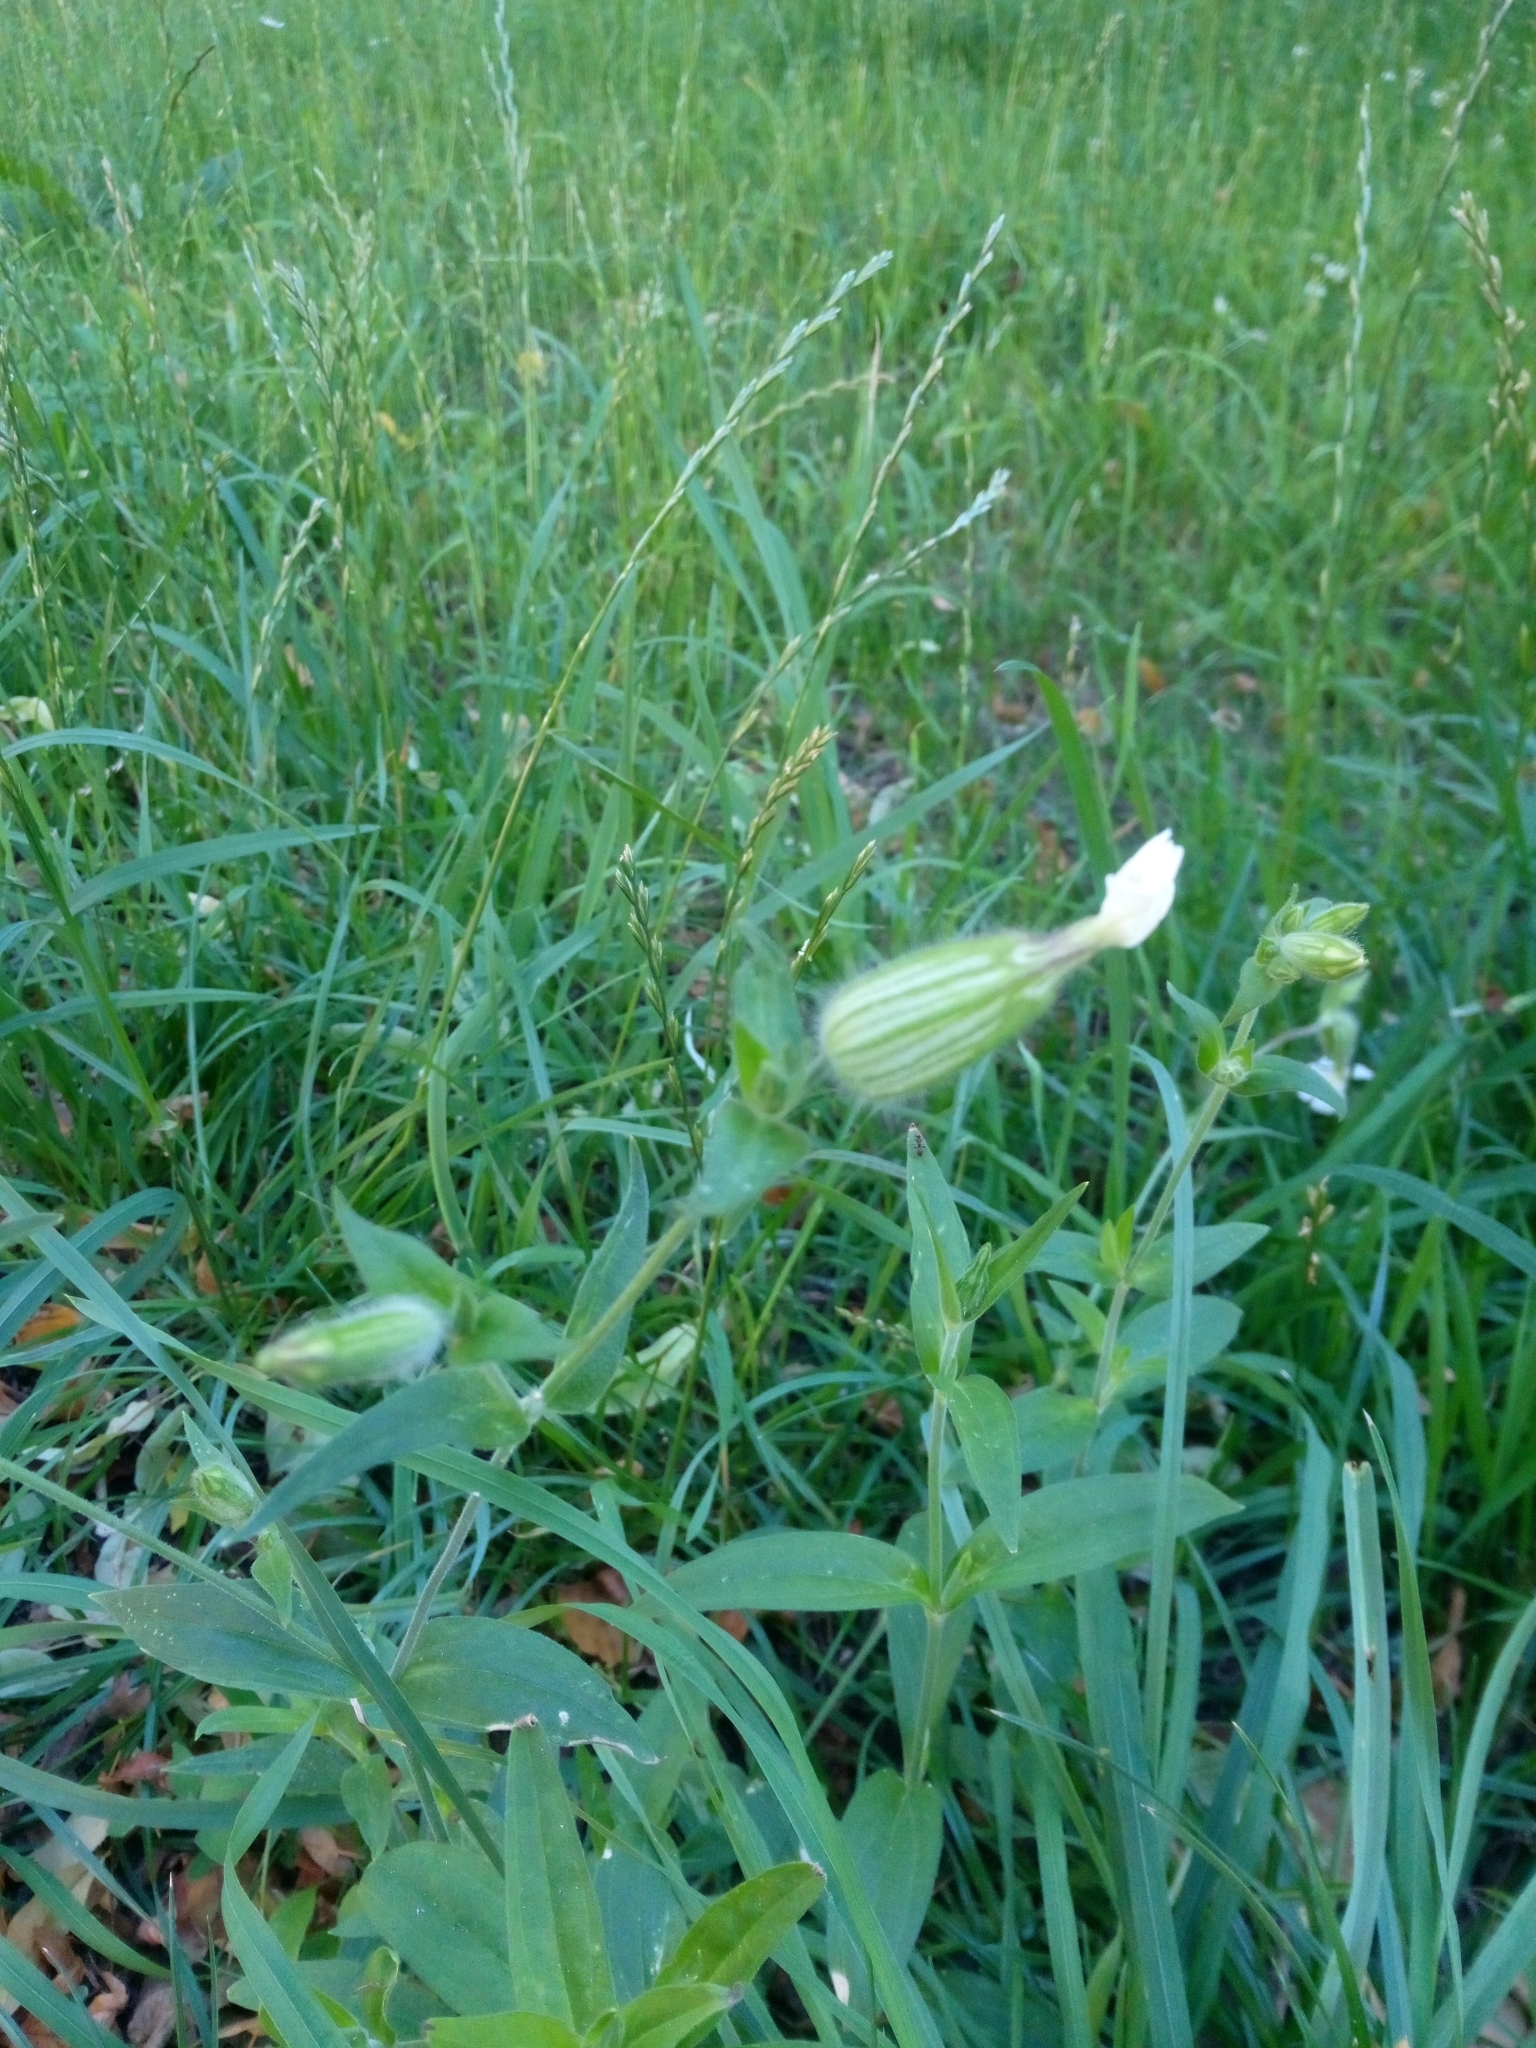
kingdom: Plantae
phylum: Tracheophyta
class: Magnoliopsida
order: Caryophyllales
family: Caryophyllaceae
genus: Silene
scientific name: Silene latifolia
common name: White campion
